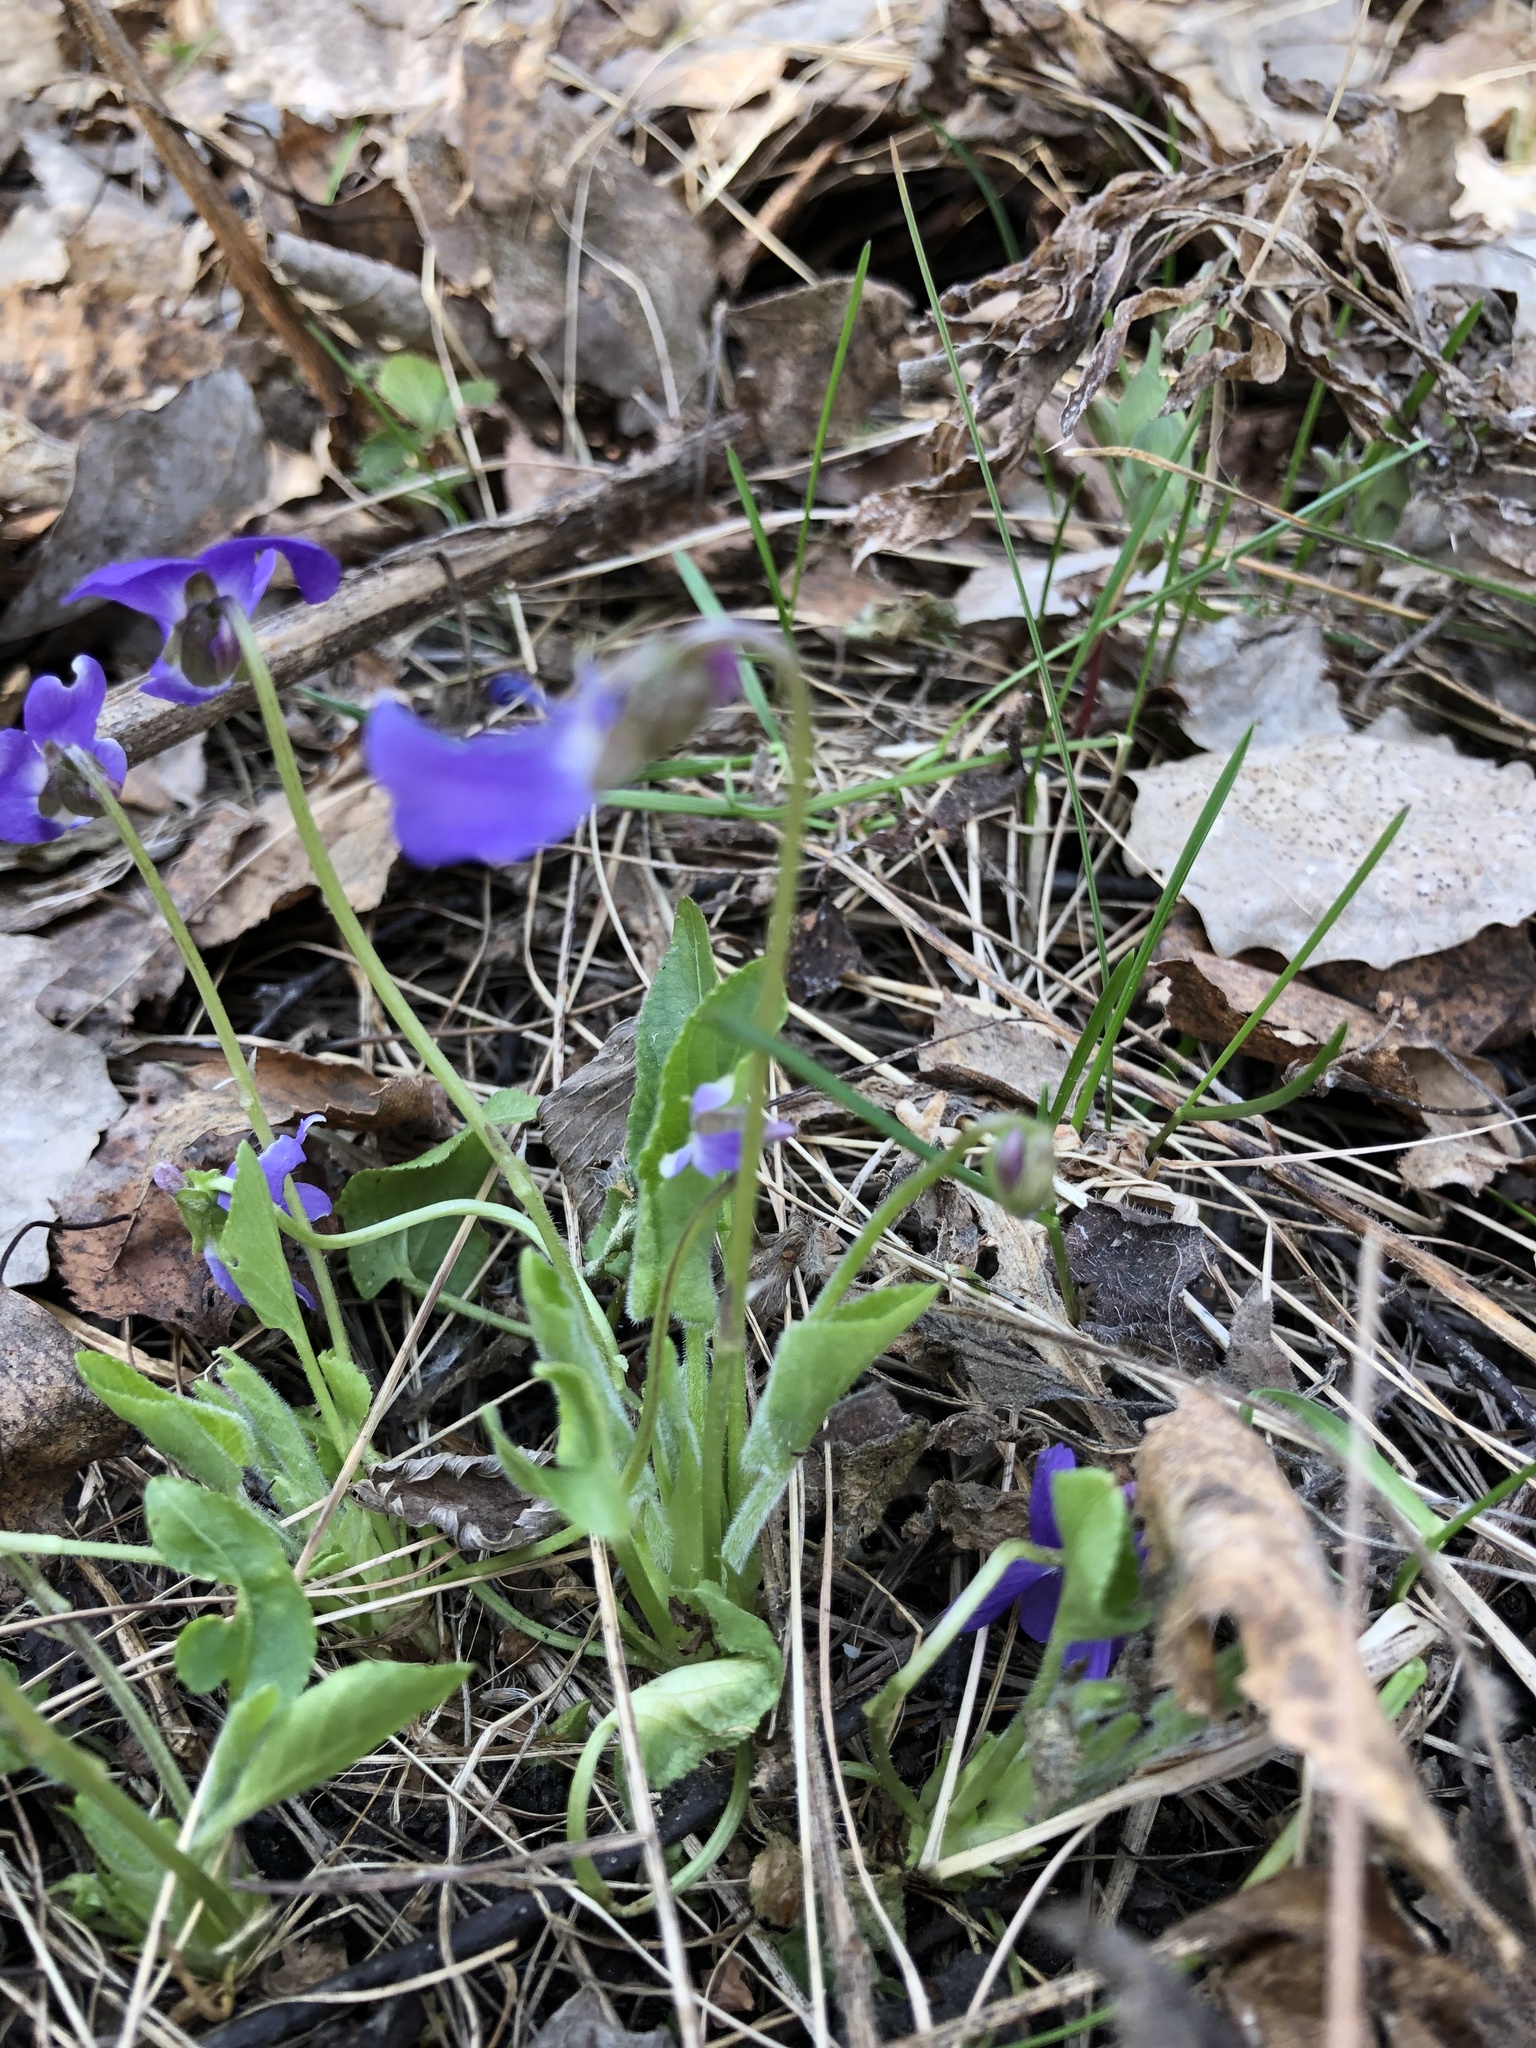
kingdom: Plantae
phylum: Tracheophyta
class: Magnoliopsida
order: Malpighiales
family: Violaceae
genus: Viola
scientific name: Viola hirta
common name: Hairy violet
